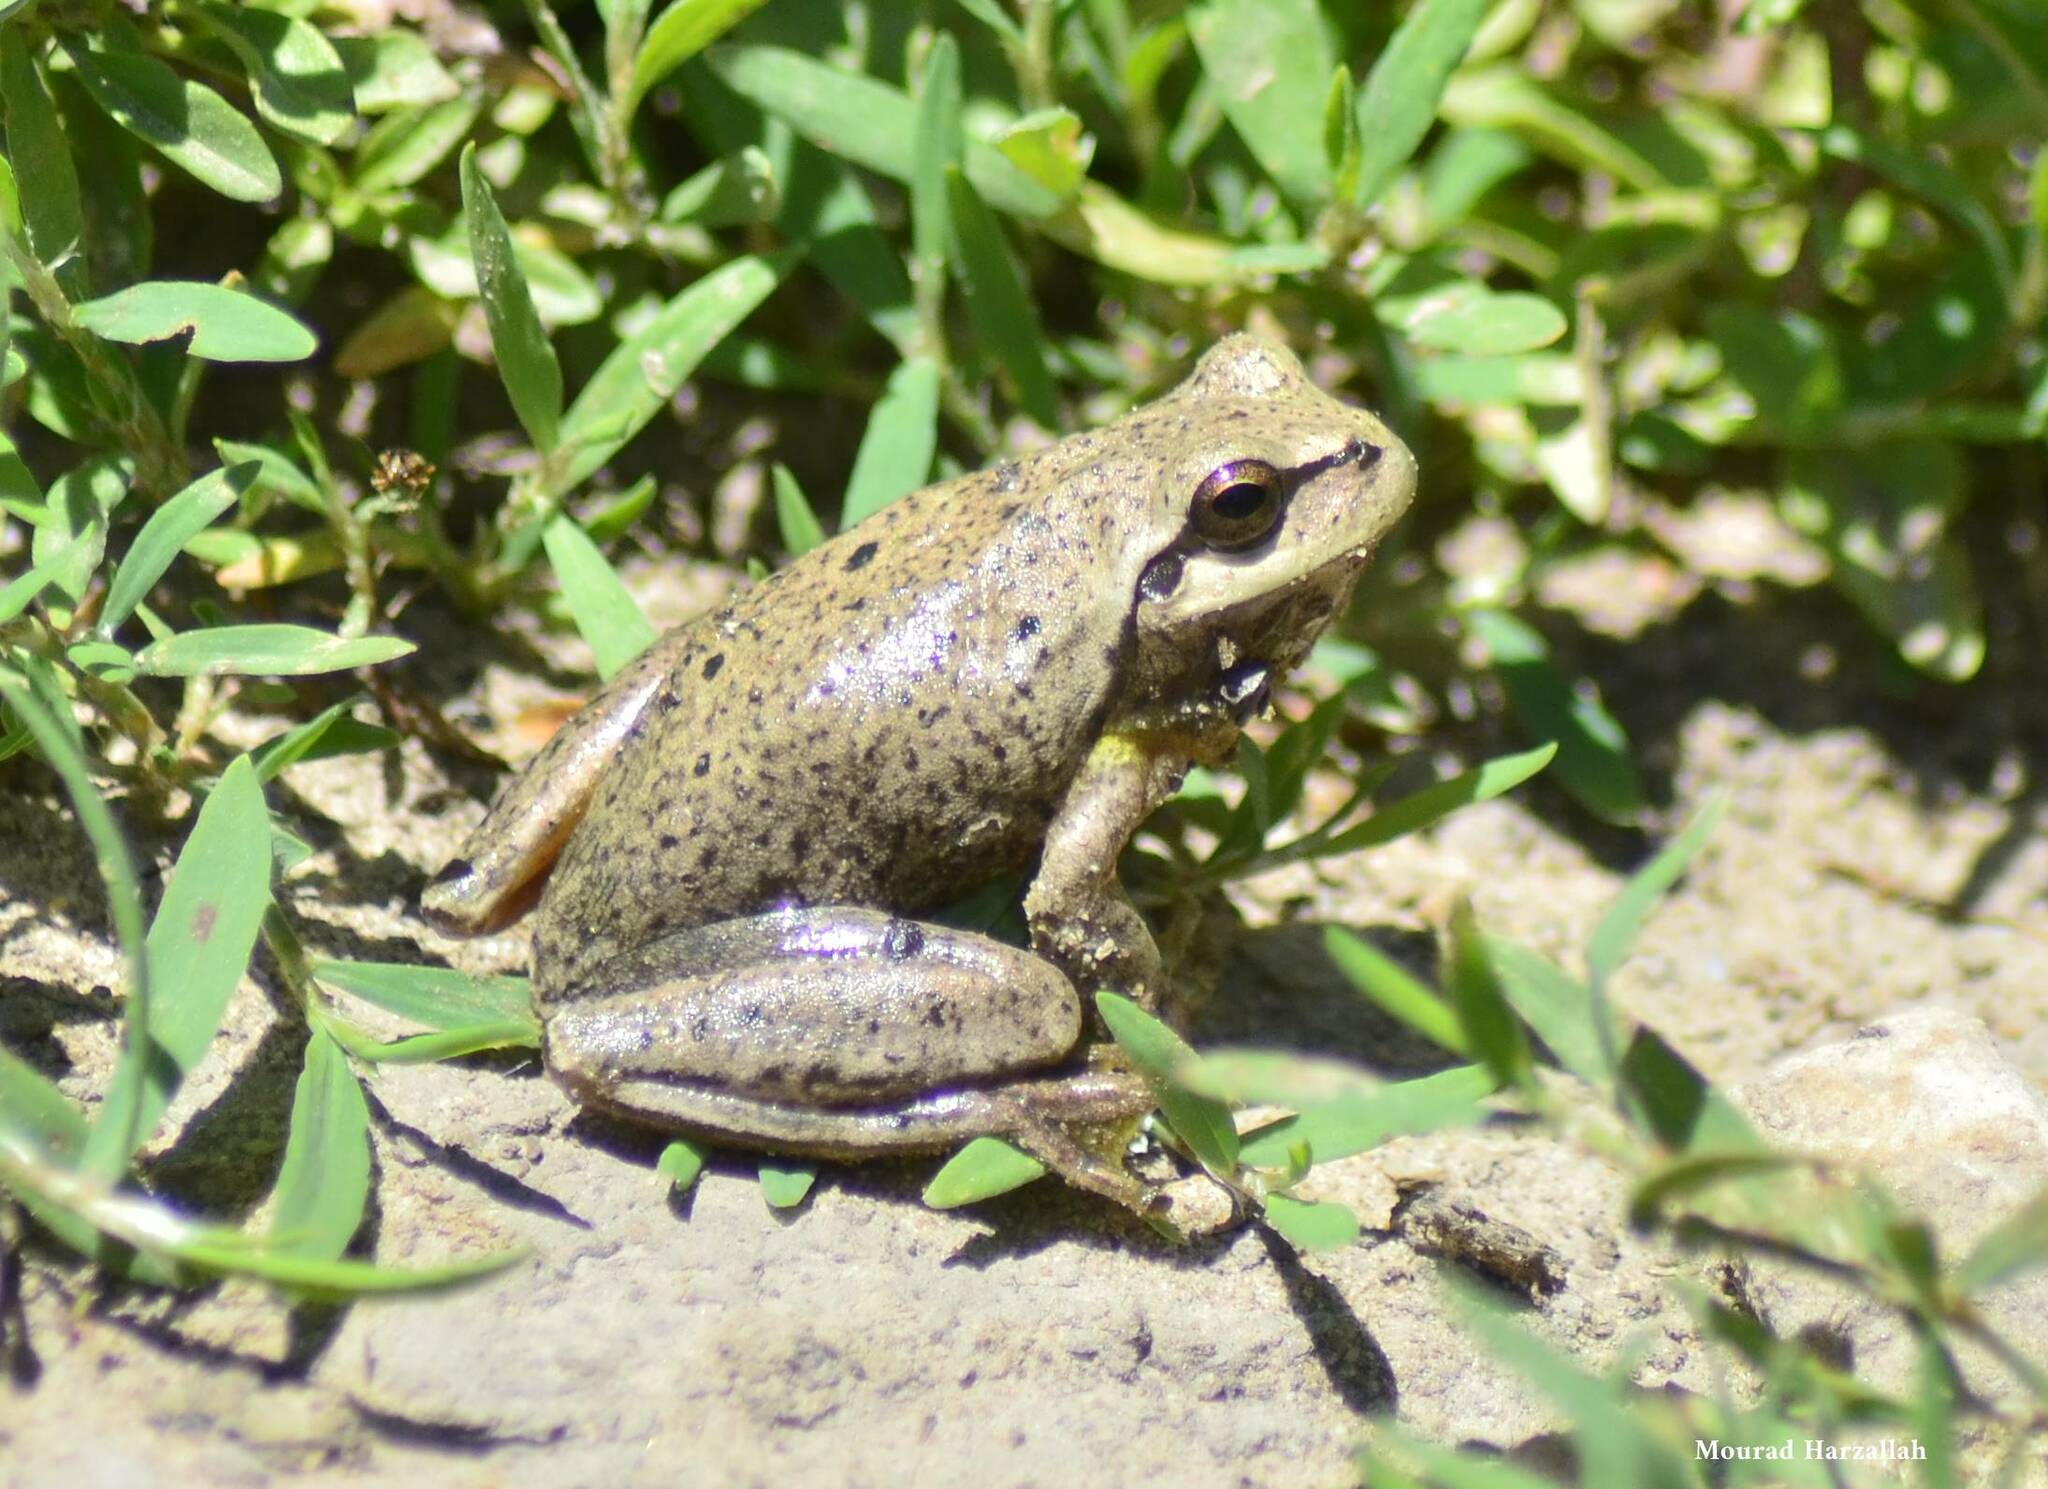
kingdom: Animalia
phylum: Chordata
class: Amphibia
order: Anura
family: Hylidae
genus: Hyla
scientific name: Hyla meridionalis
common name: Stripeless tree frog
